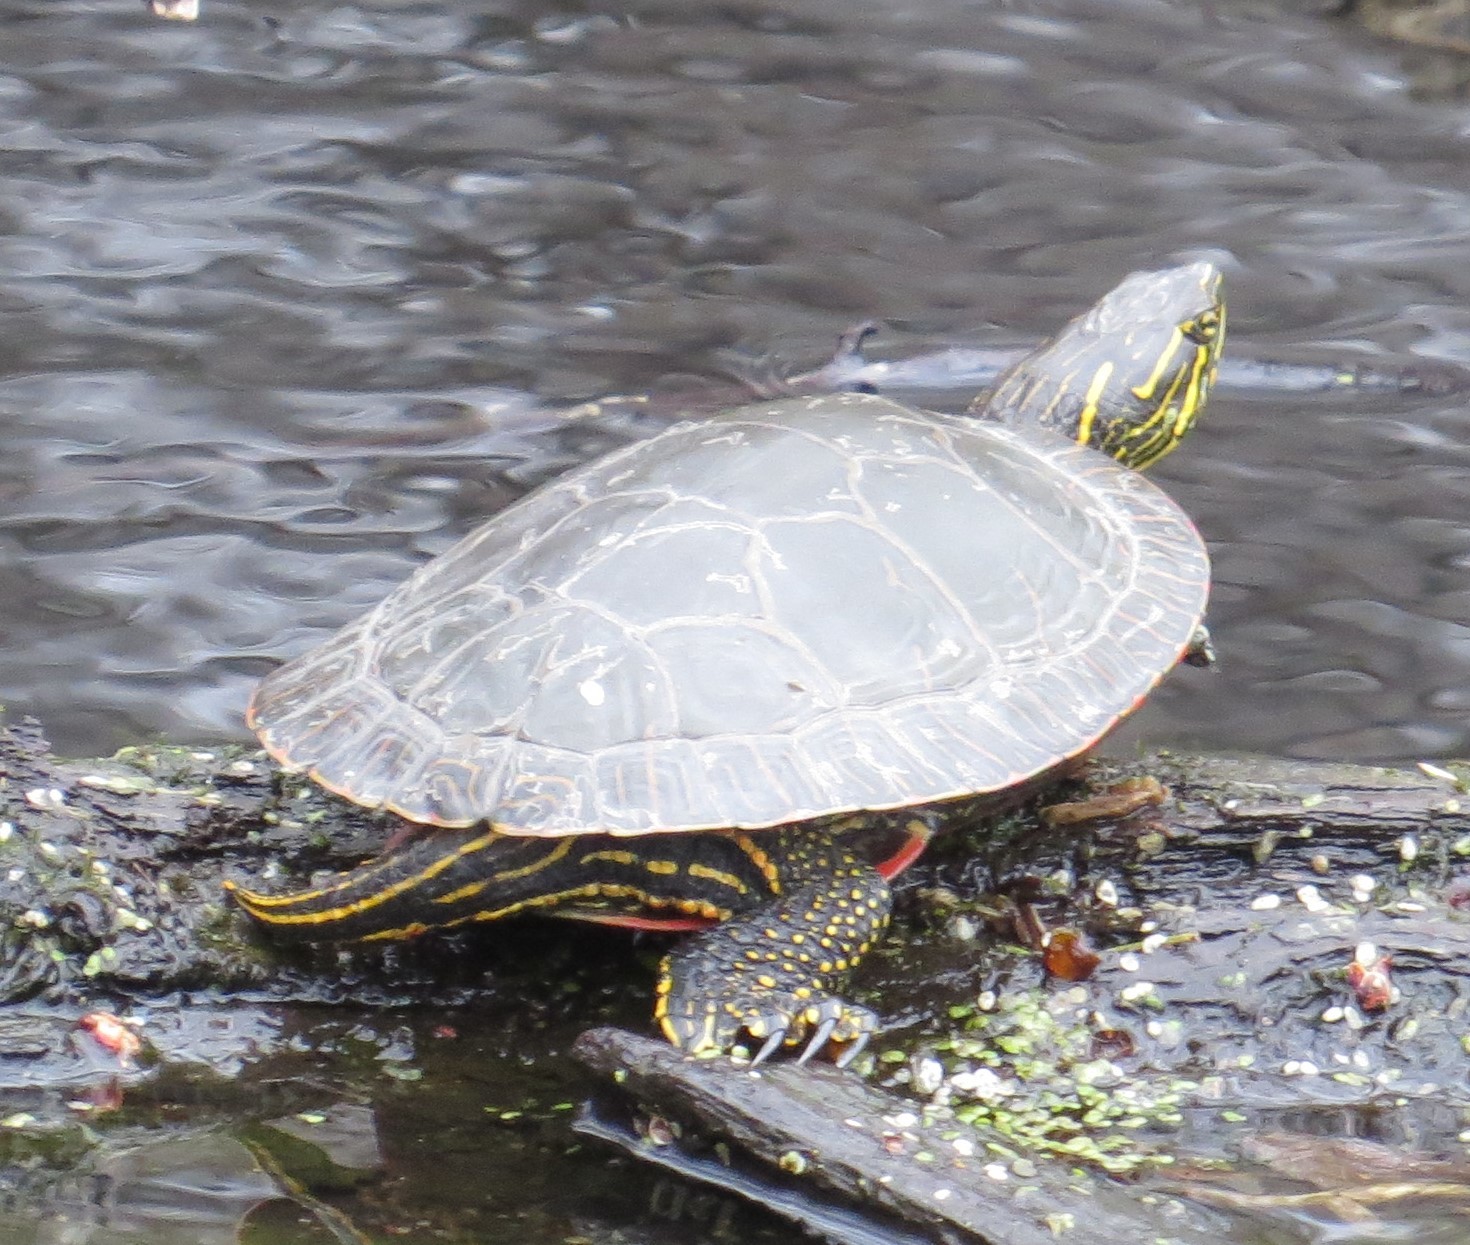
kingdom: Animalia
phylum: Chordata
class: Testudines
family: Emydidae
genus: Chrysemys
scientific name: Chrysemys picta
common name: Painted turtle
